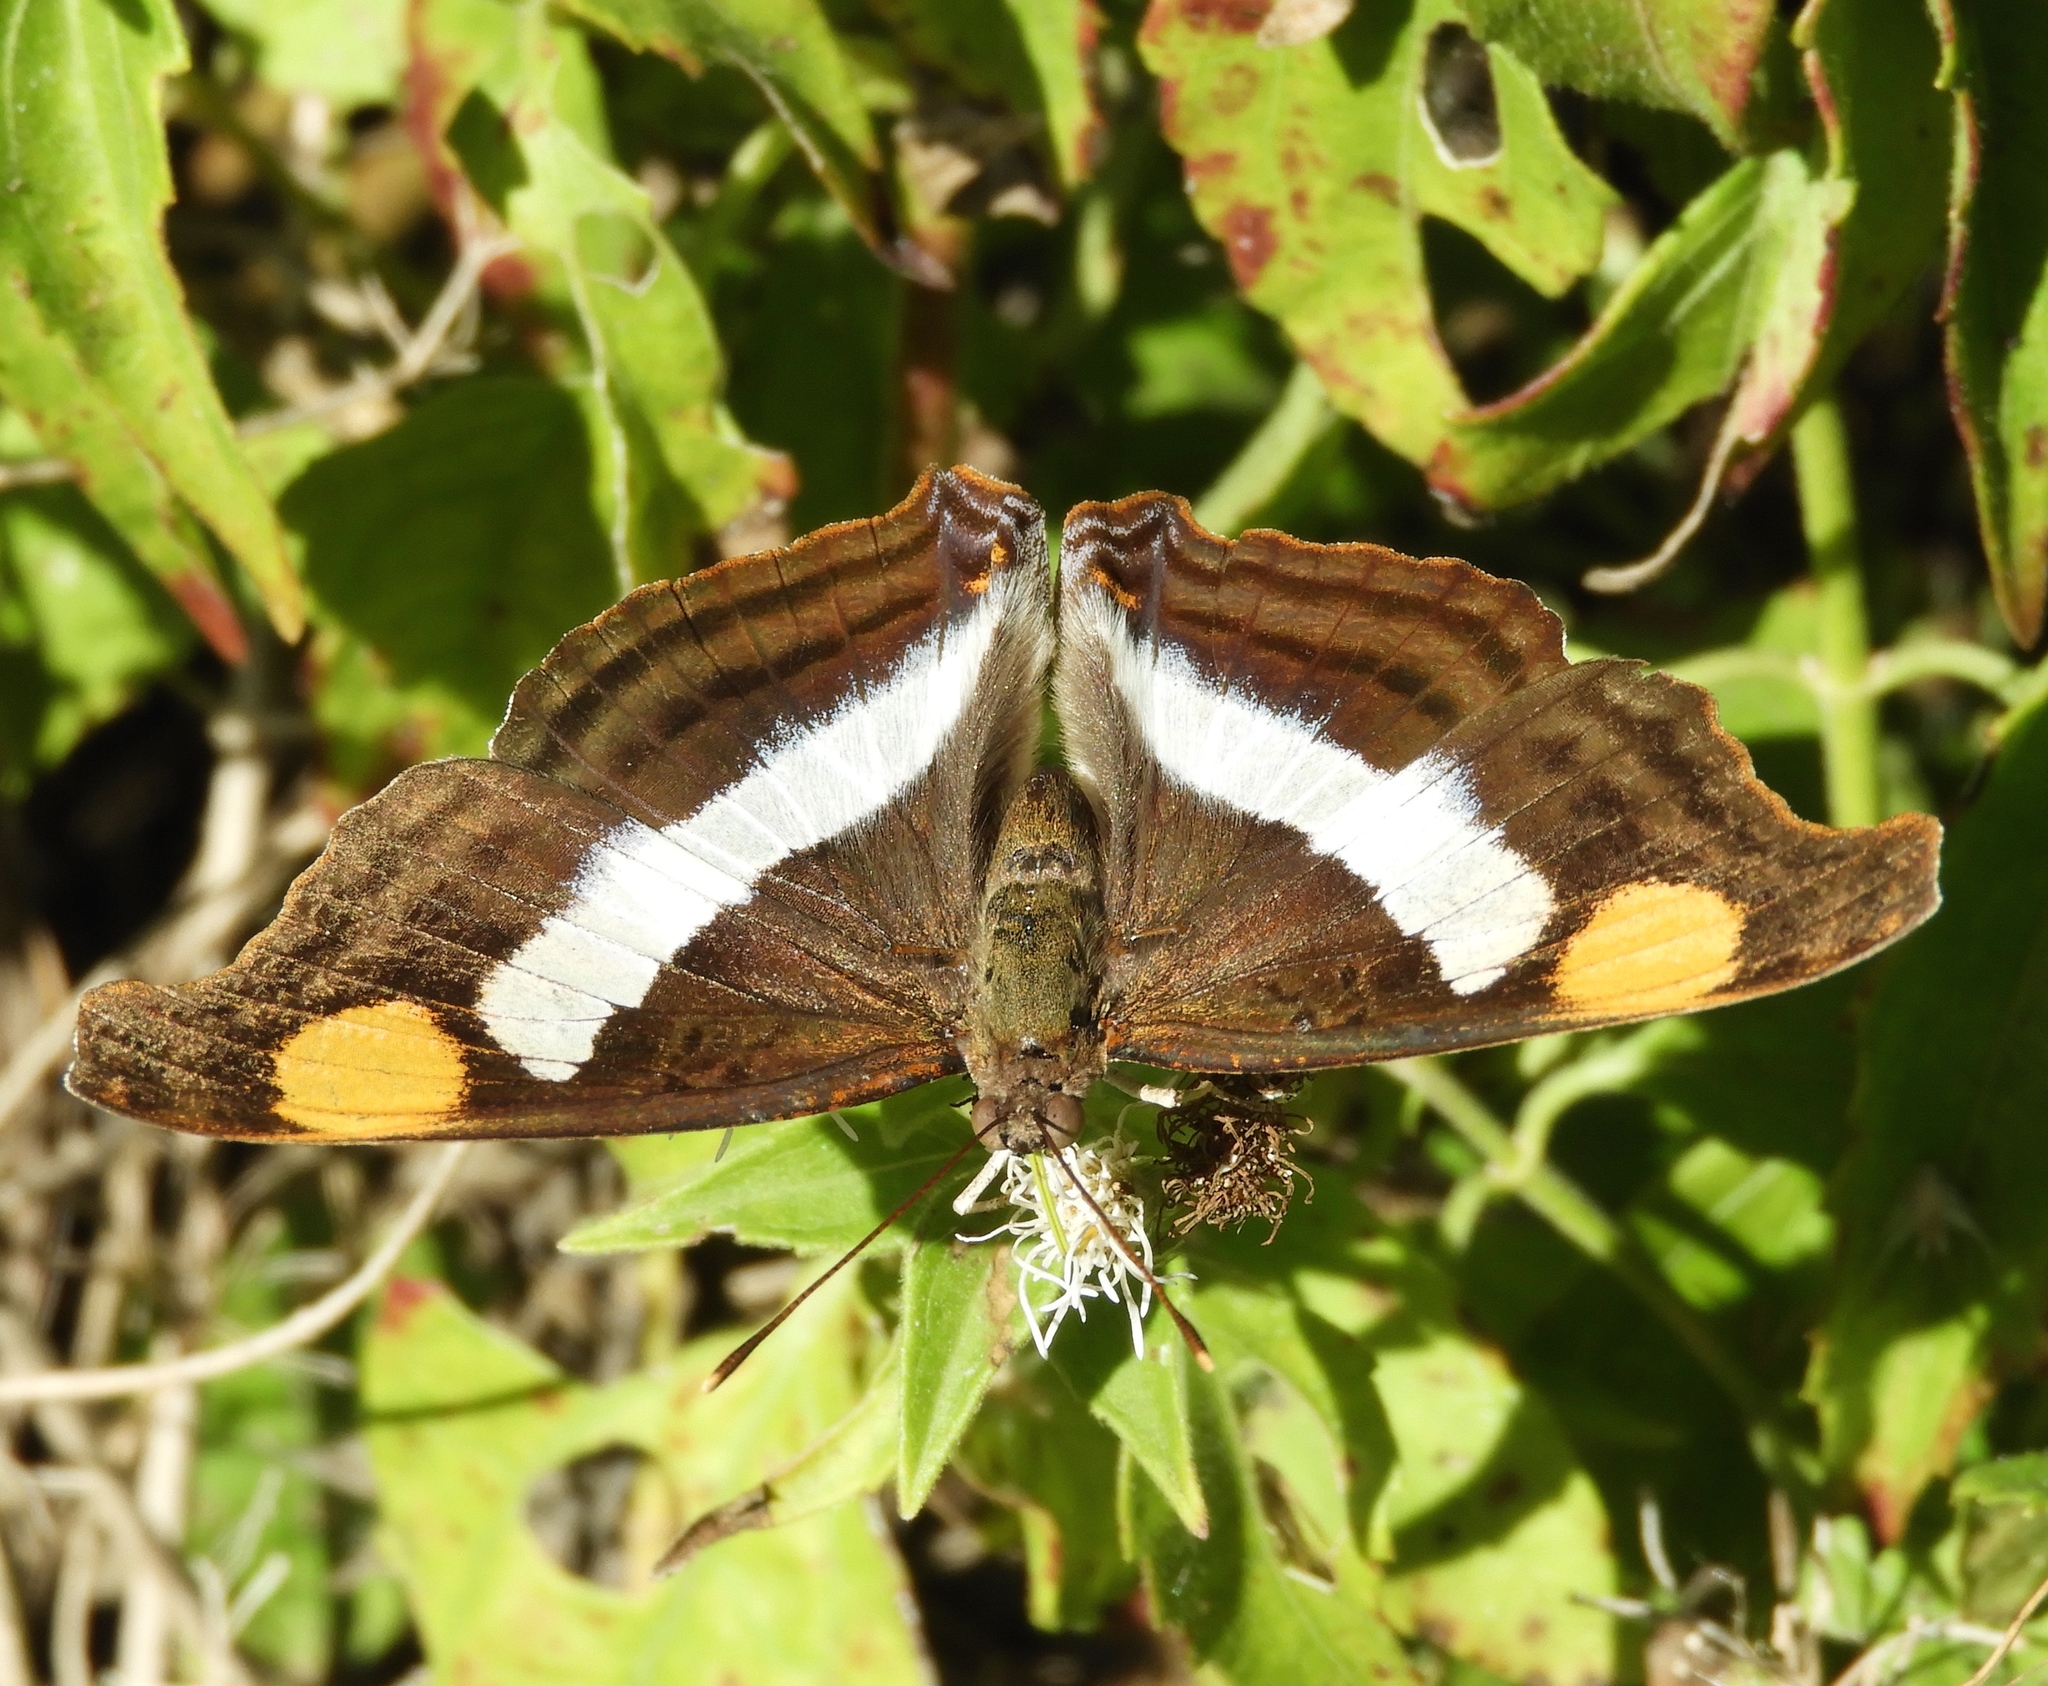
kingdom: Animalia
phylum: Arthropoda
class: Insecta
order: Lepidoptera
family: Nymphalidae
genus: Doxocopa
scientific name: Doxocopa laure
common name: Silver emperor
